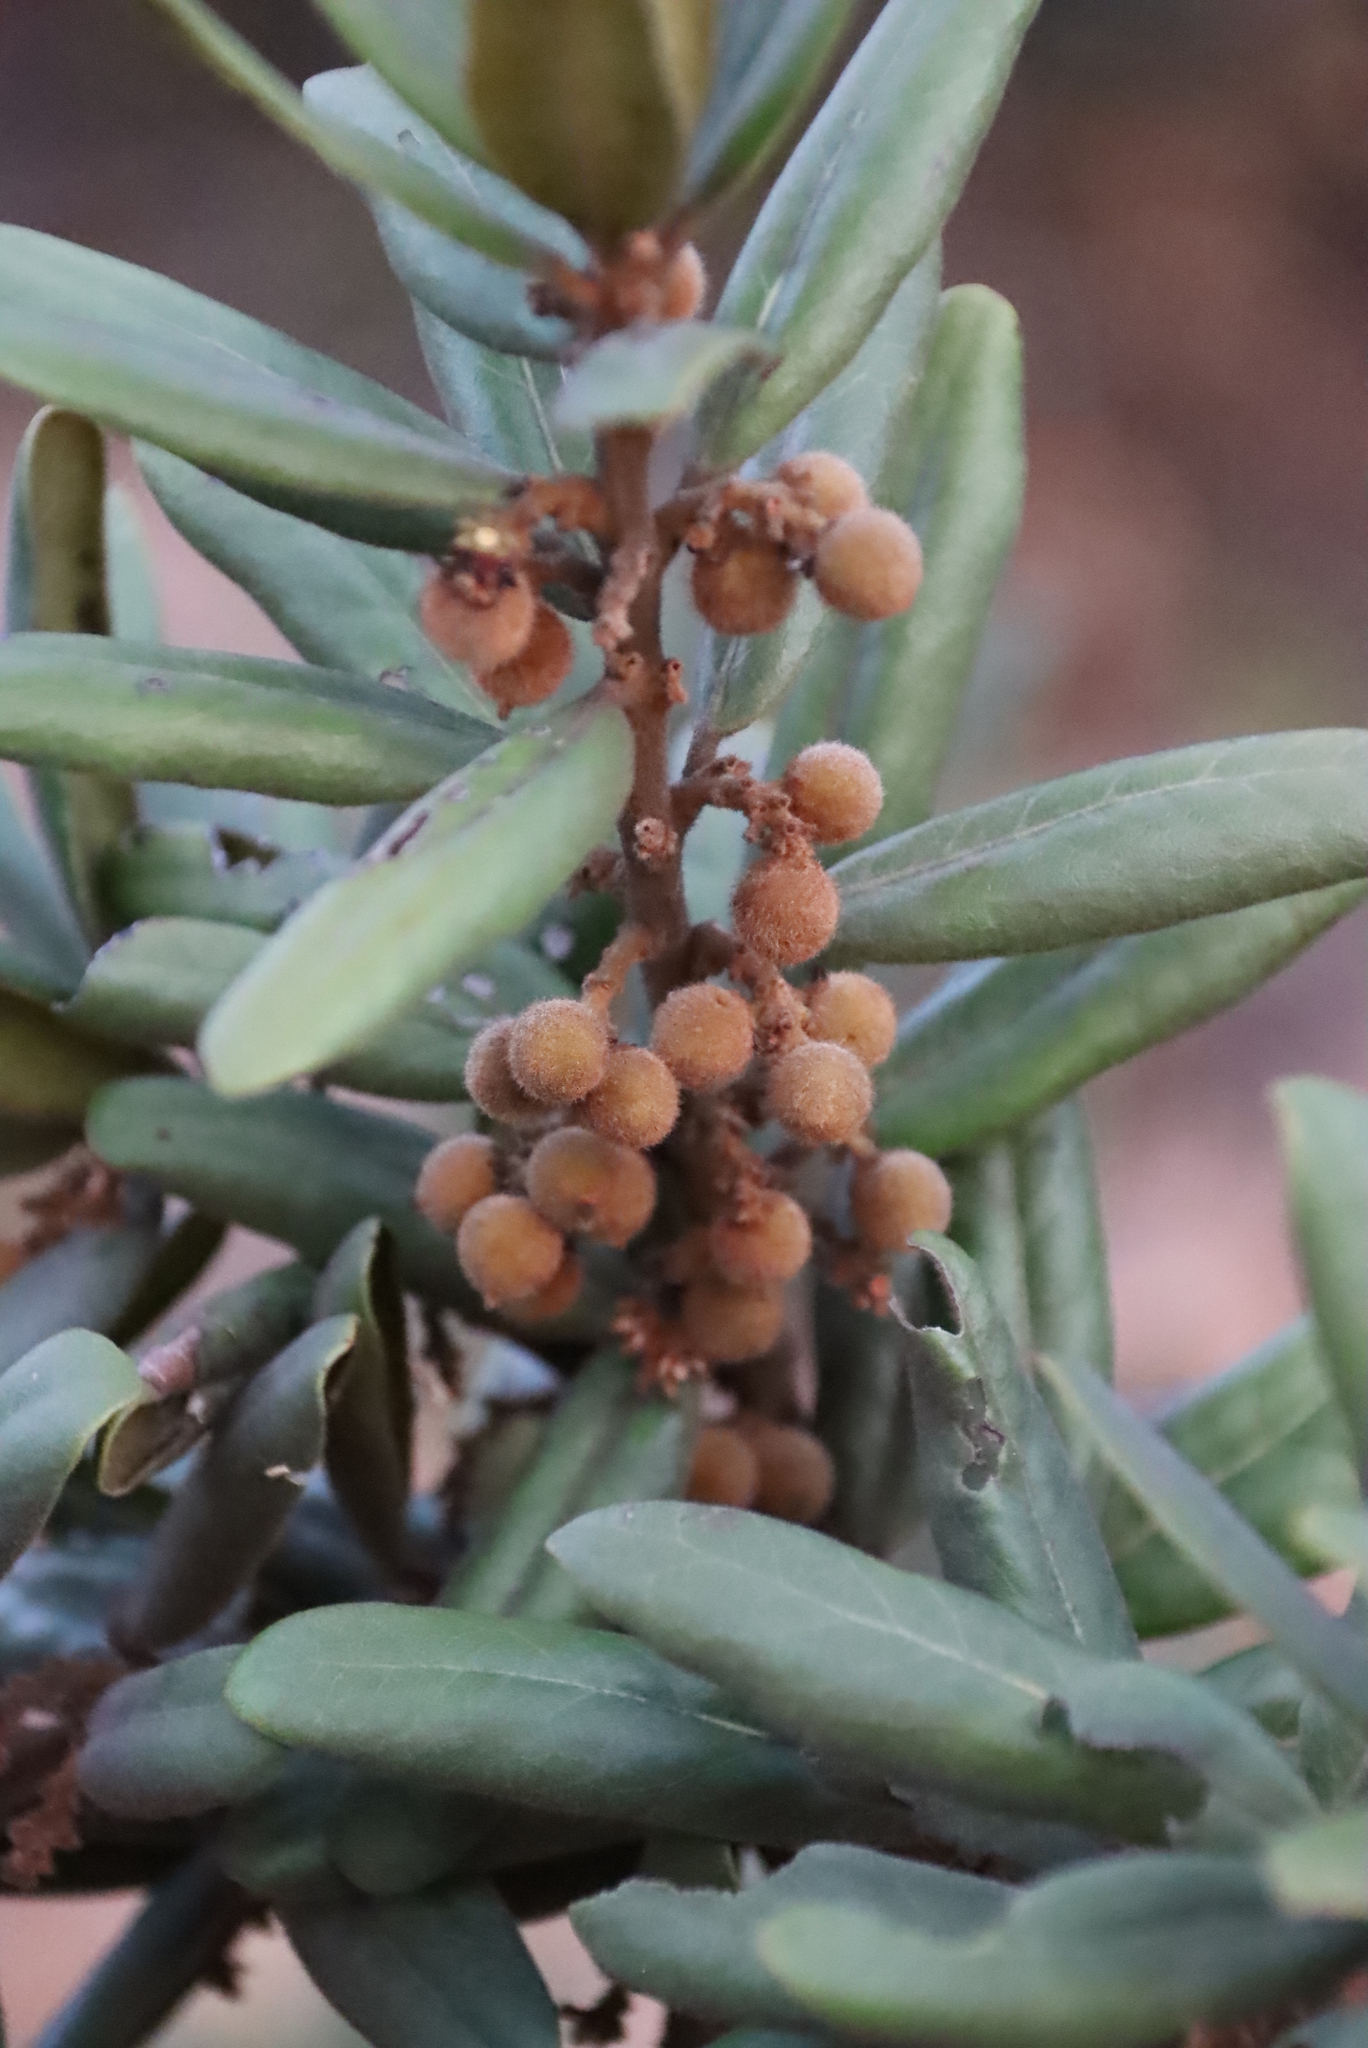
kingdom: Plantae
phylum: Tracheophyta
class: Magnoliopsida
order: Ericales
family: Ebenaceae
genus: Euclea
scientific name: Euclea natalensis
